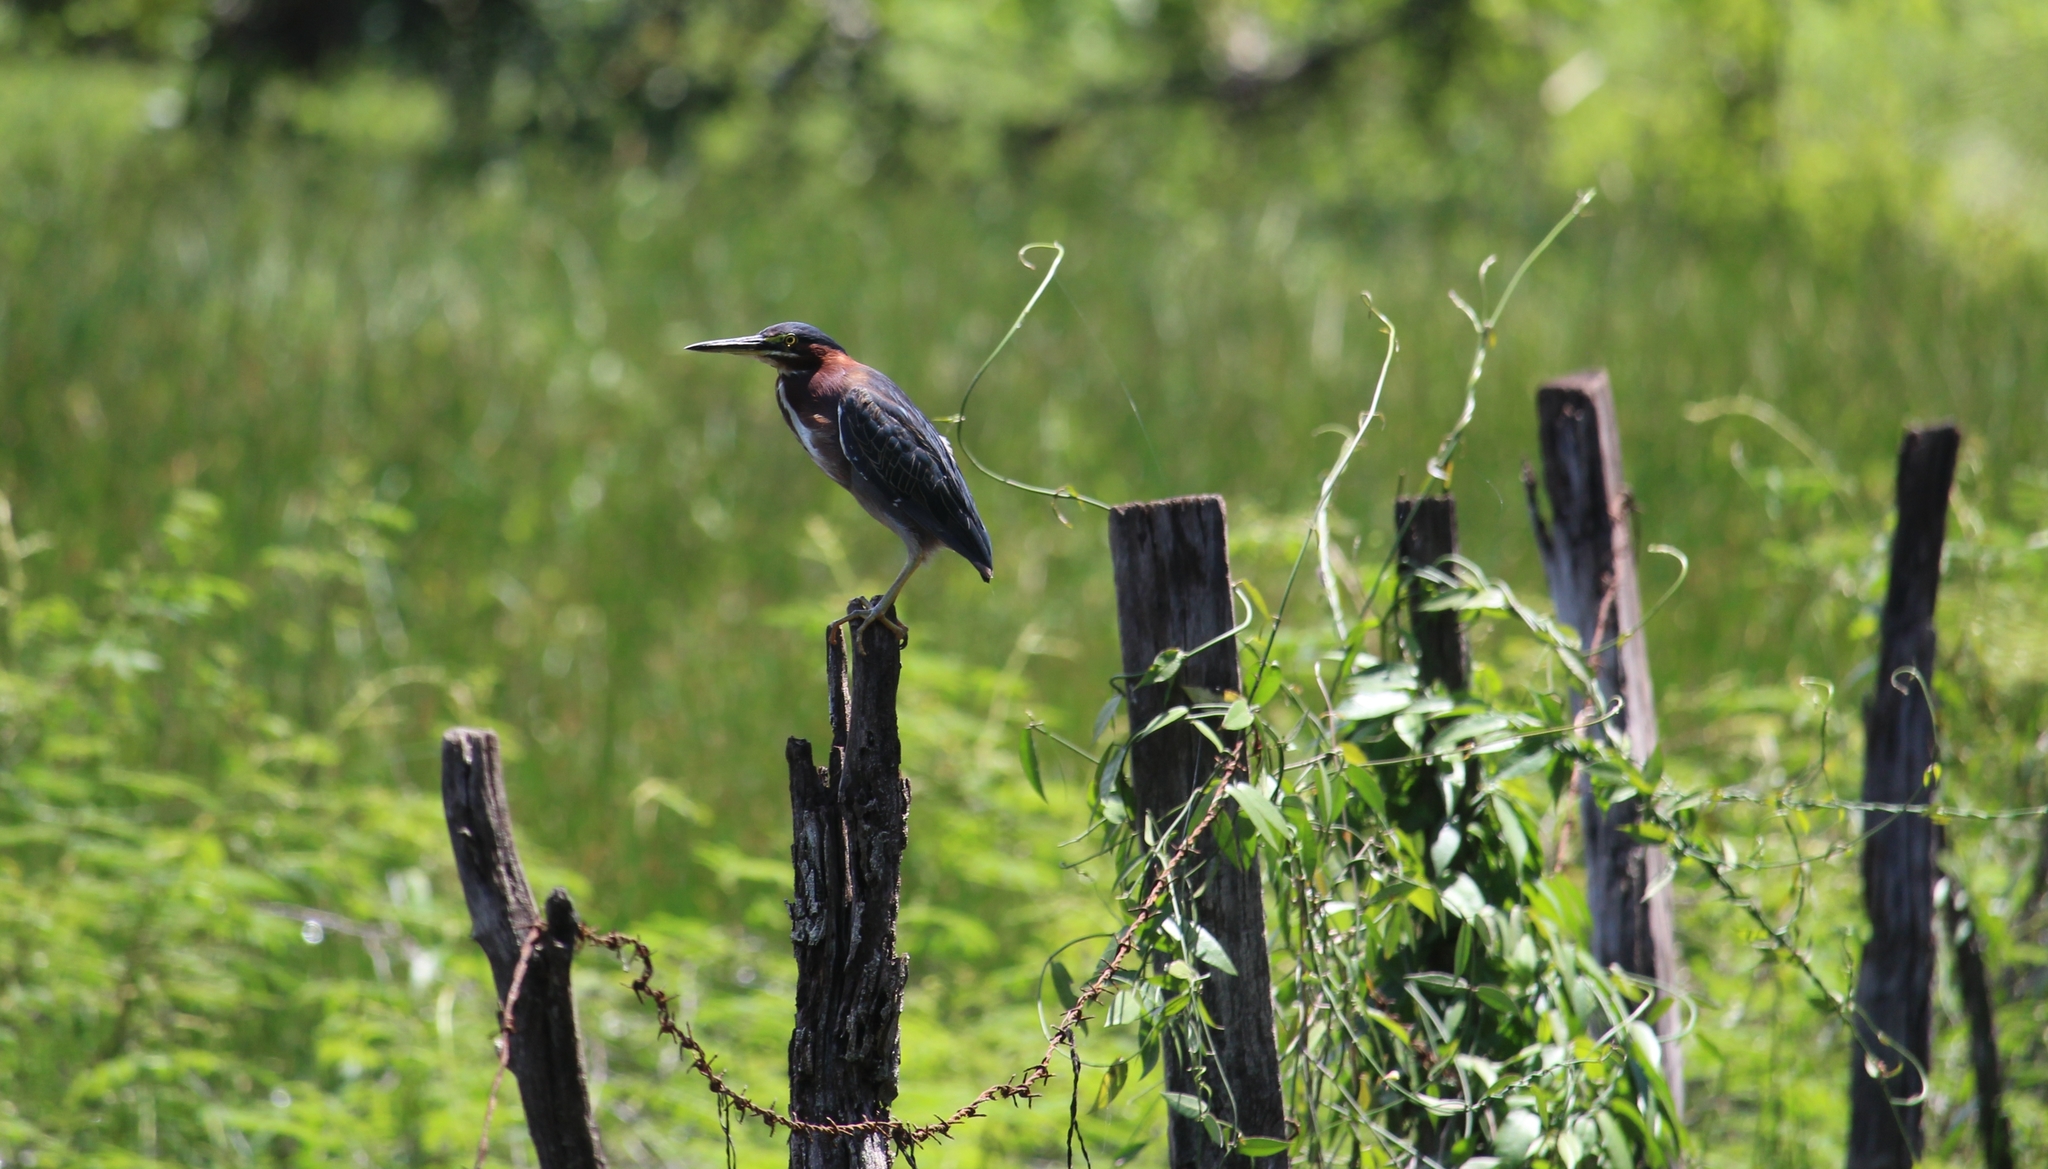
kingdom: Animalia
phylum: Chordata
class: Aves
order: Pelecaniformes
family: Ardeidae
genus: Butorides
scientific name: Butorides virescens
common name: Green heron
